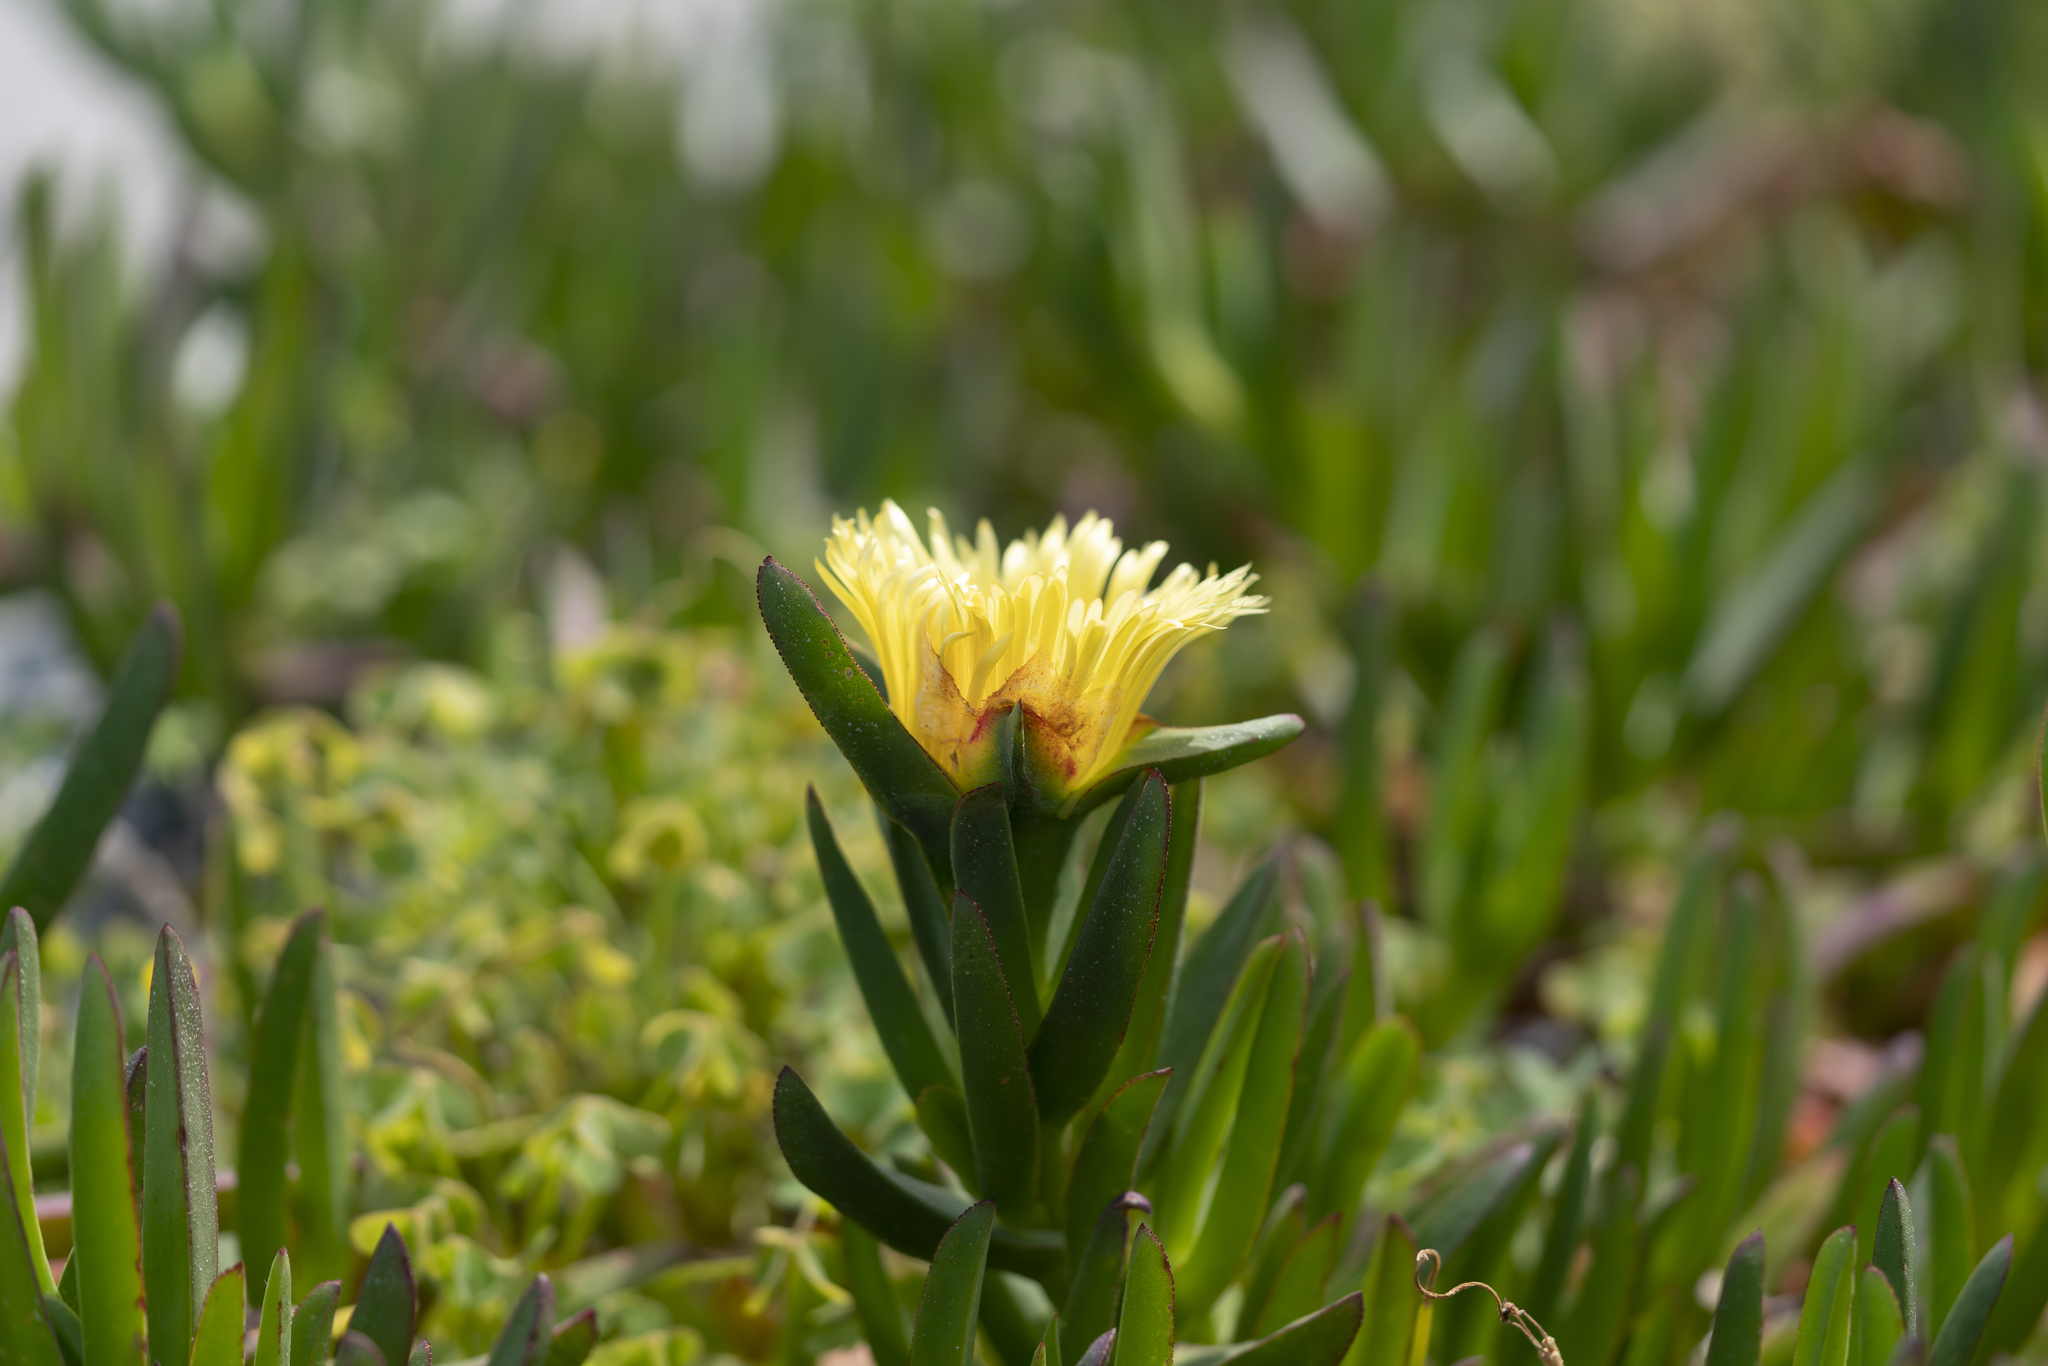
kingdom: Plantae
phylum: Tracheophyta
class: Magnoliopsida
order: Caryophyllales
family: Aizoaceae
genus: Carpobrotus
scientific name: Carpobrotus edulis
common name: Hottentot-fig
